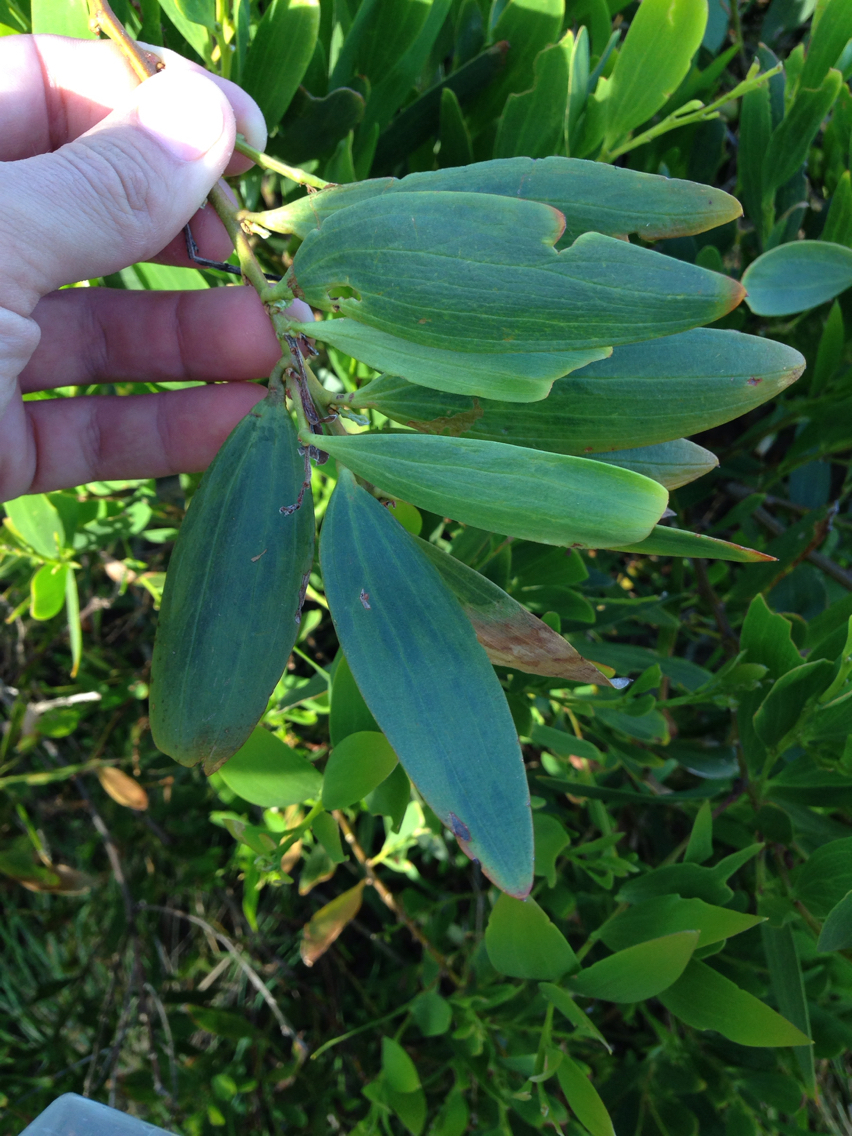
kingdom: Plantae
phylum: Tracheophyta
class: Magnoliopsida
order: Fabales
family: Fabaceae
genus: Acacia
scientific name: Acacia longifolia
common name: Sydney golden wattle
